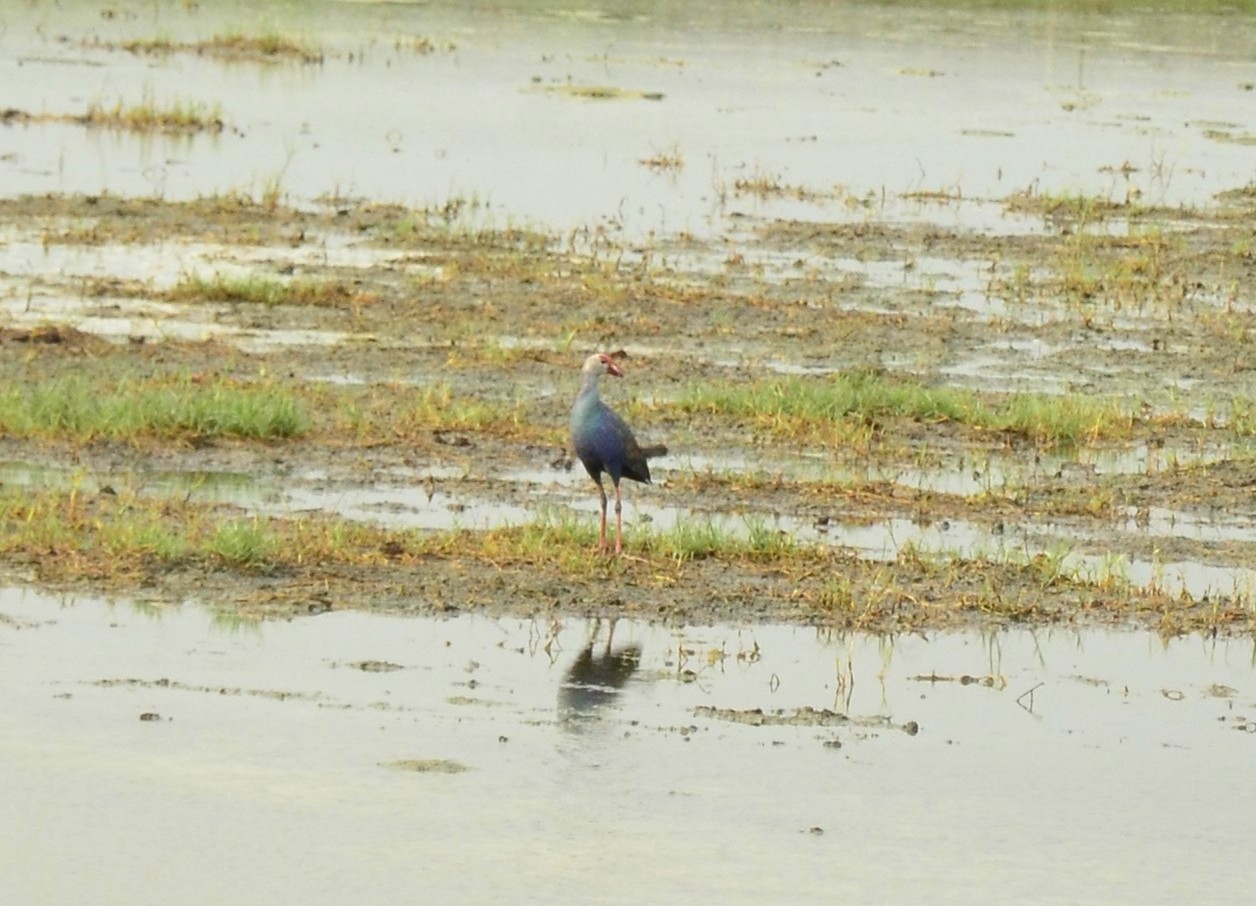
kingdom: Animalia
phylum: Chordata
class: Aves
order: Gruiformes
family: Rallidae
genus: Porphyrio
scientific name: Porphyrio porphyrio
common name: Purple swamphen
